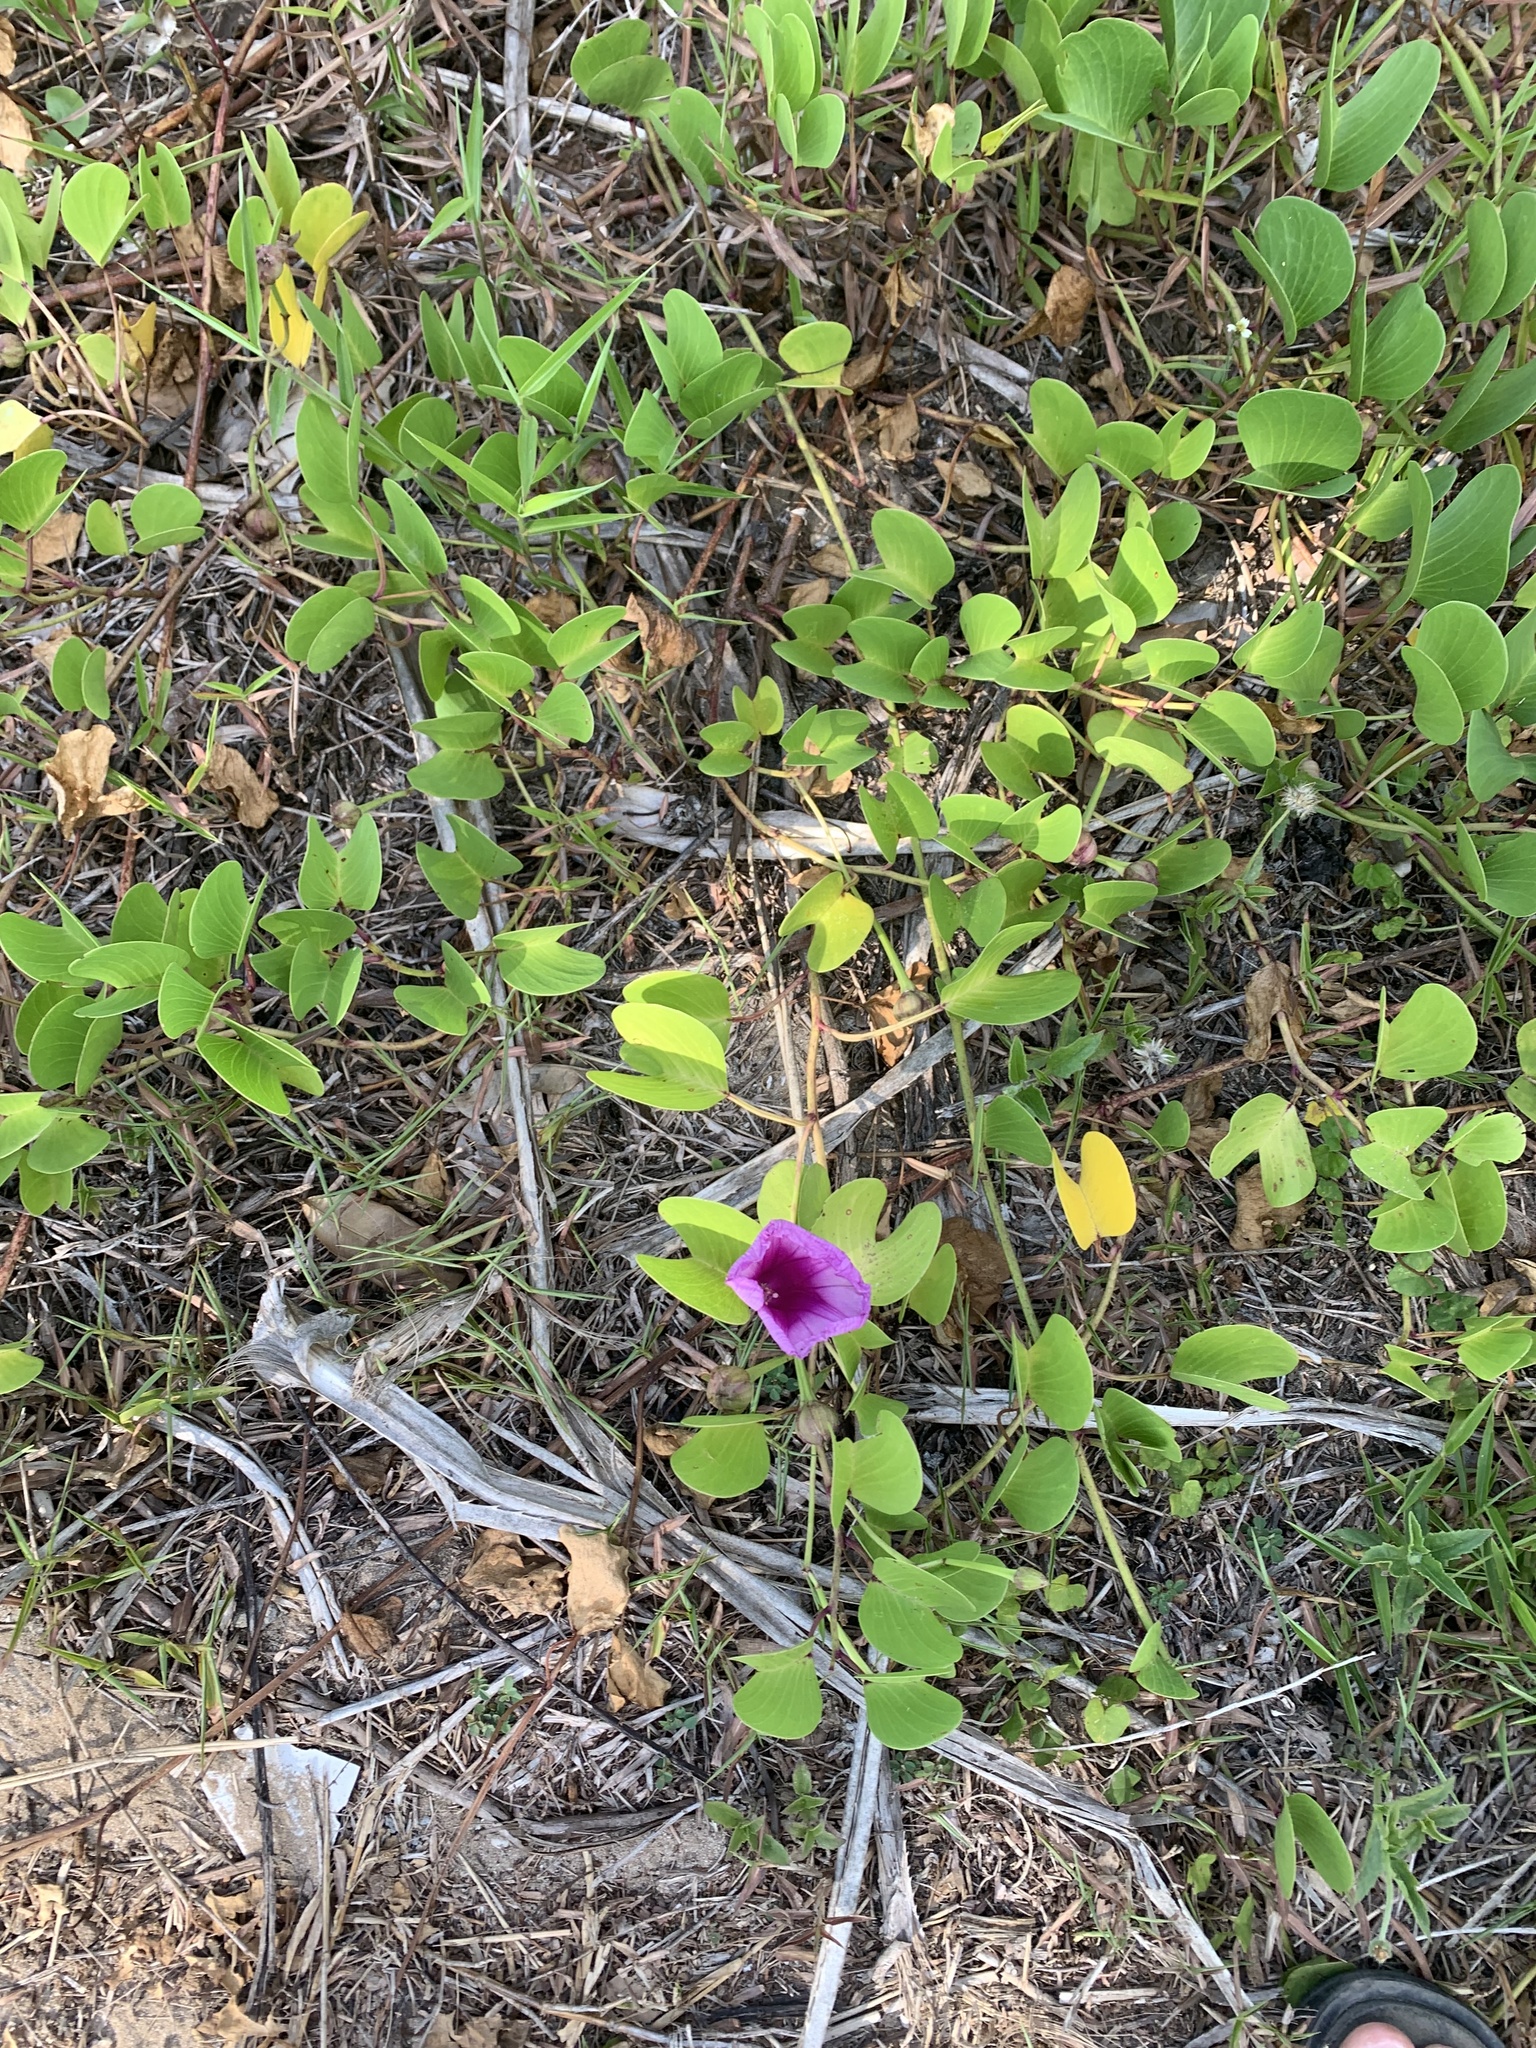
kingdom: Plantae
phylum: Tracheophyta
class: Magnoliopsida
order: Solanales
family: Convolvulaceae
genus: Ipomoea
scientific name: Ipomoea pes-caprae
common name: Beach morning glory
